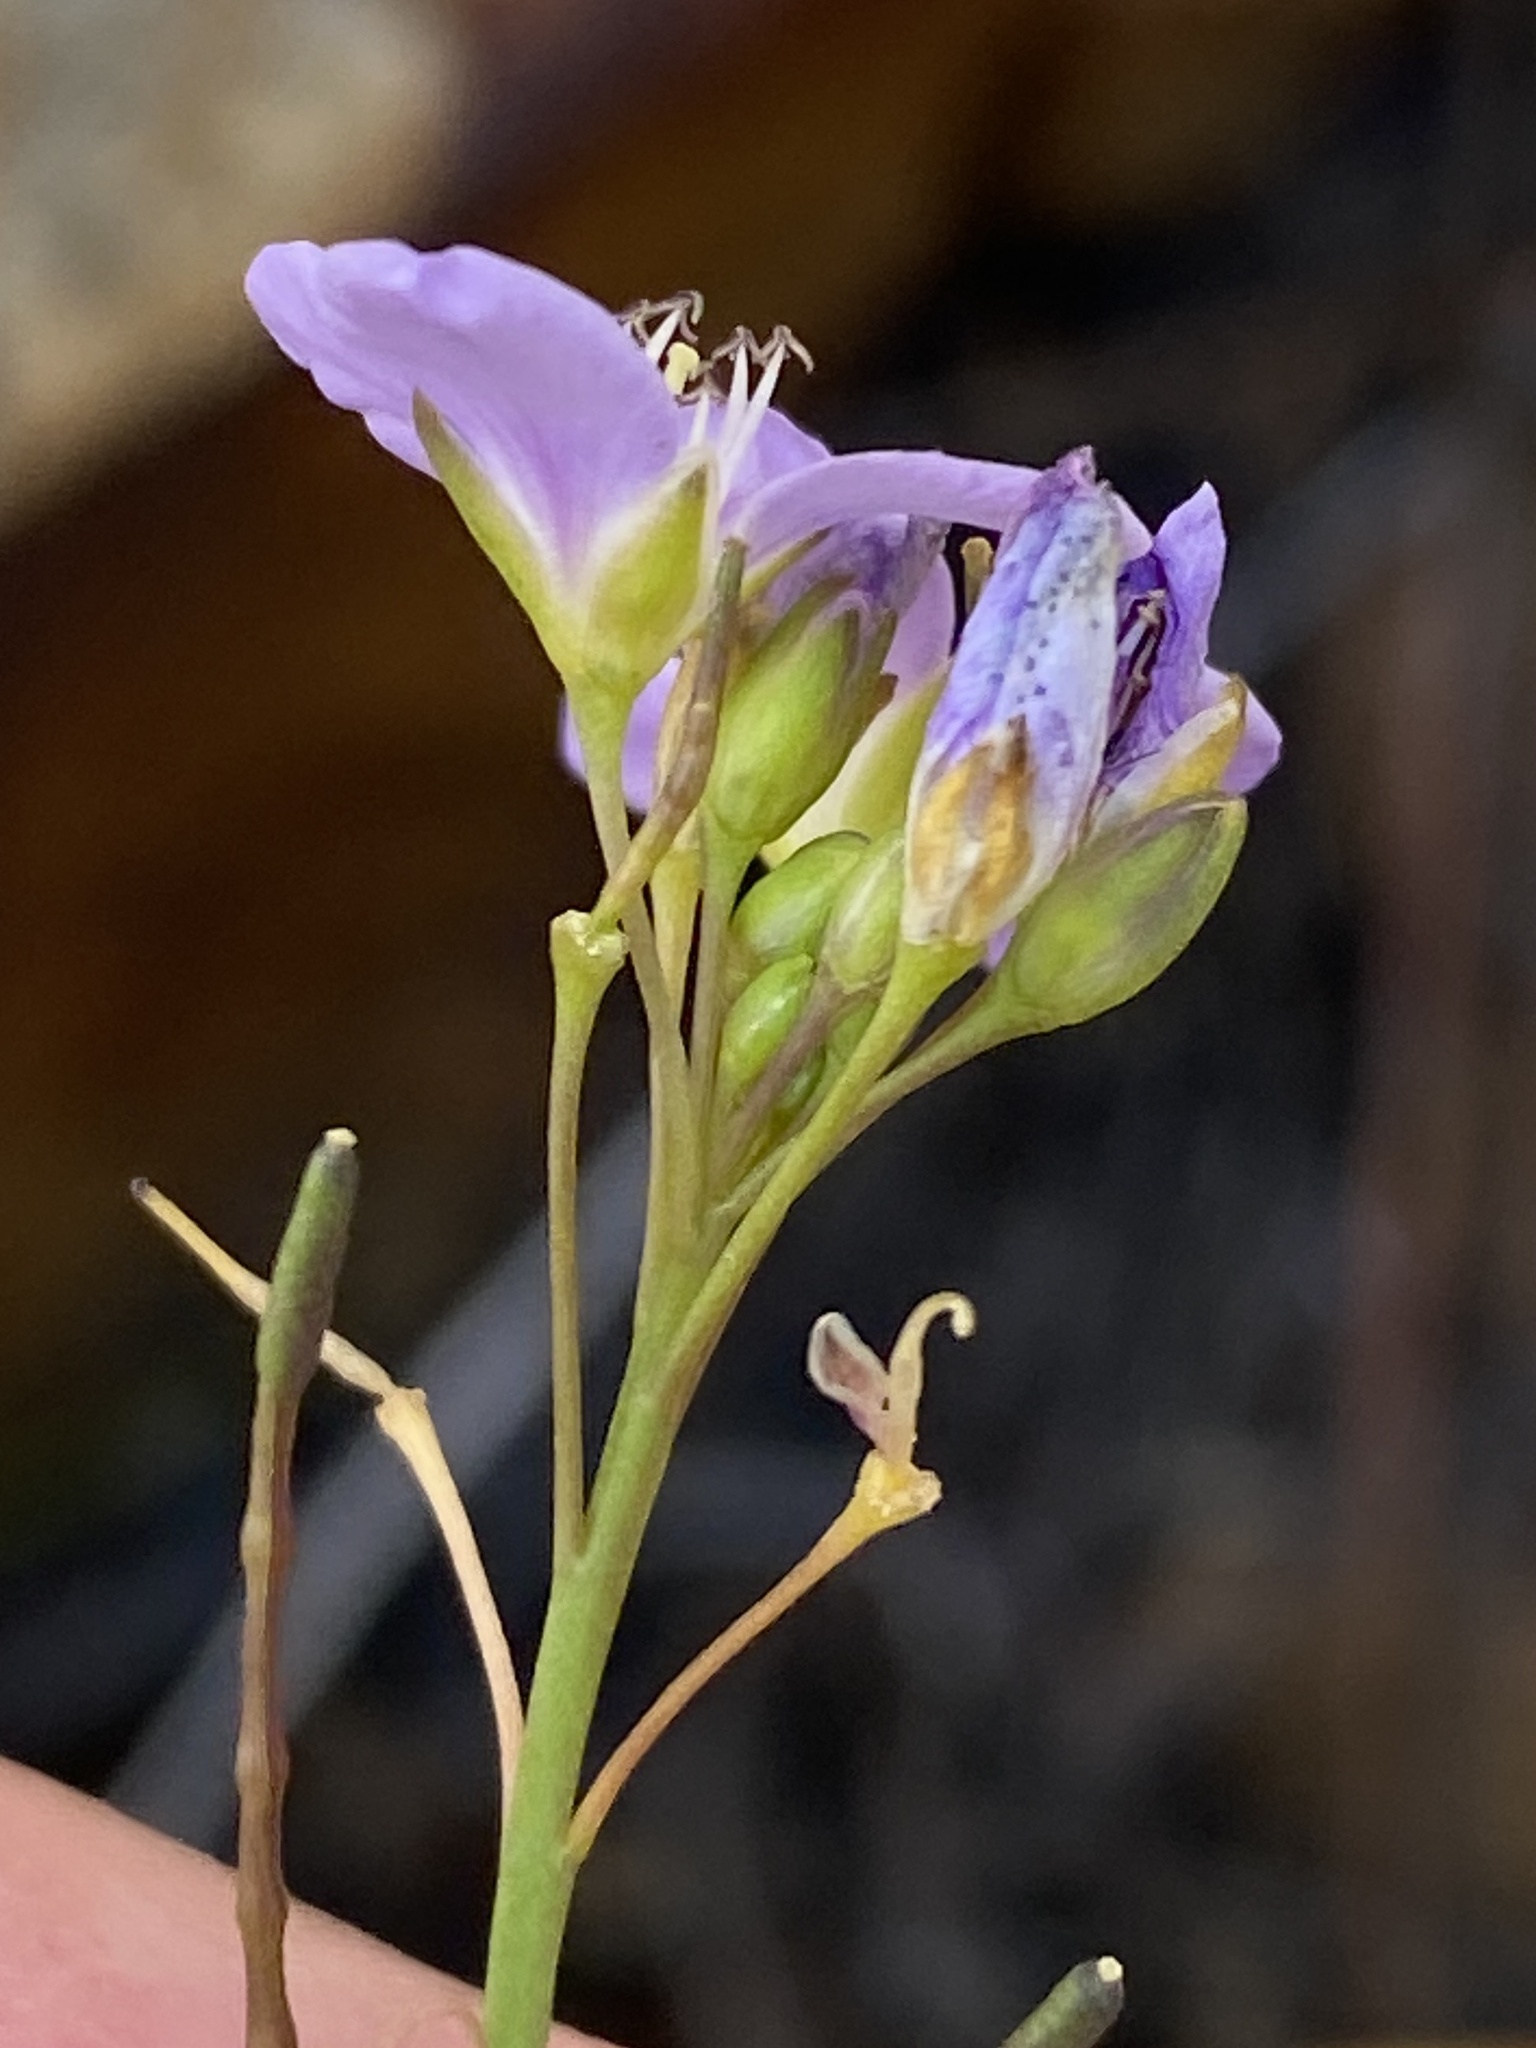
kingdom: Plantae
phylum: Tracheophyta
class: Magnoliopsida
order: Brassicales
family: Brassicaceae
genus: Heliophila
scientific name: Heliophila filicaulis
